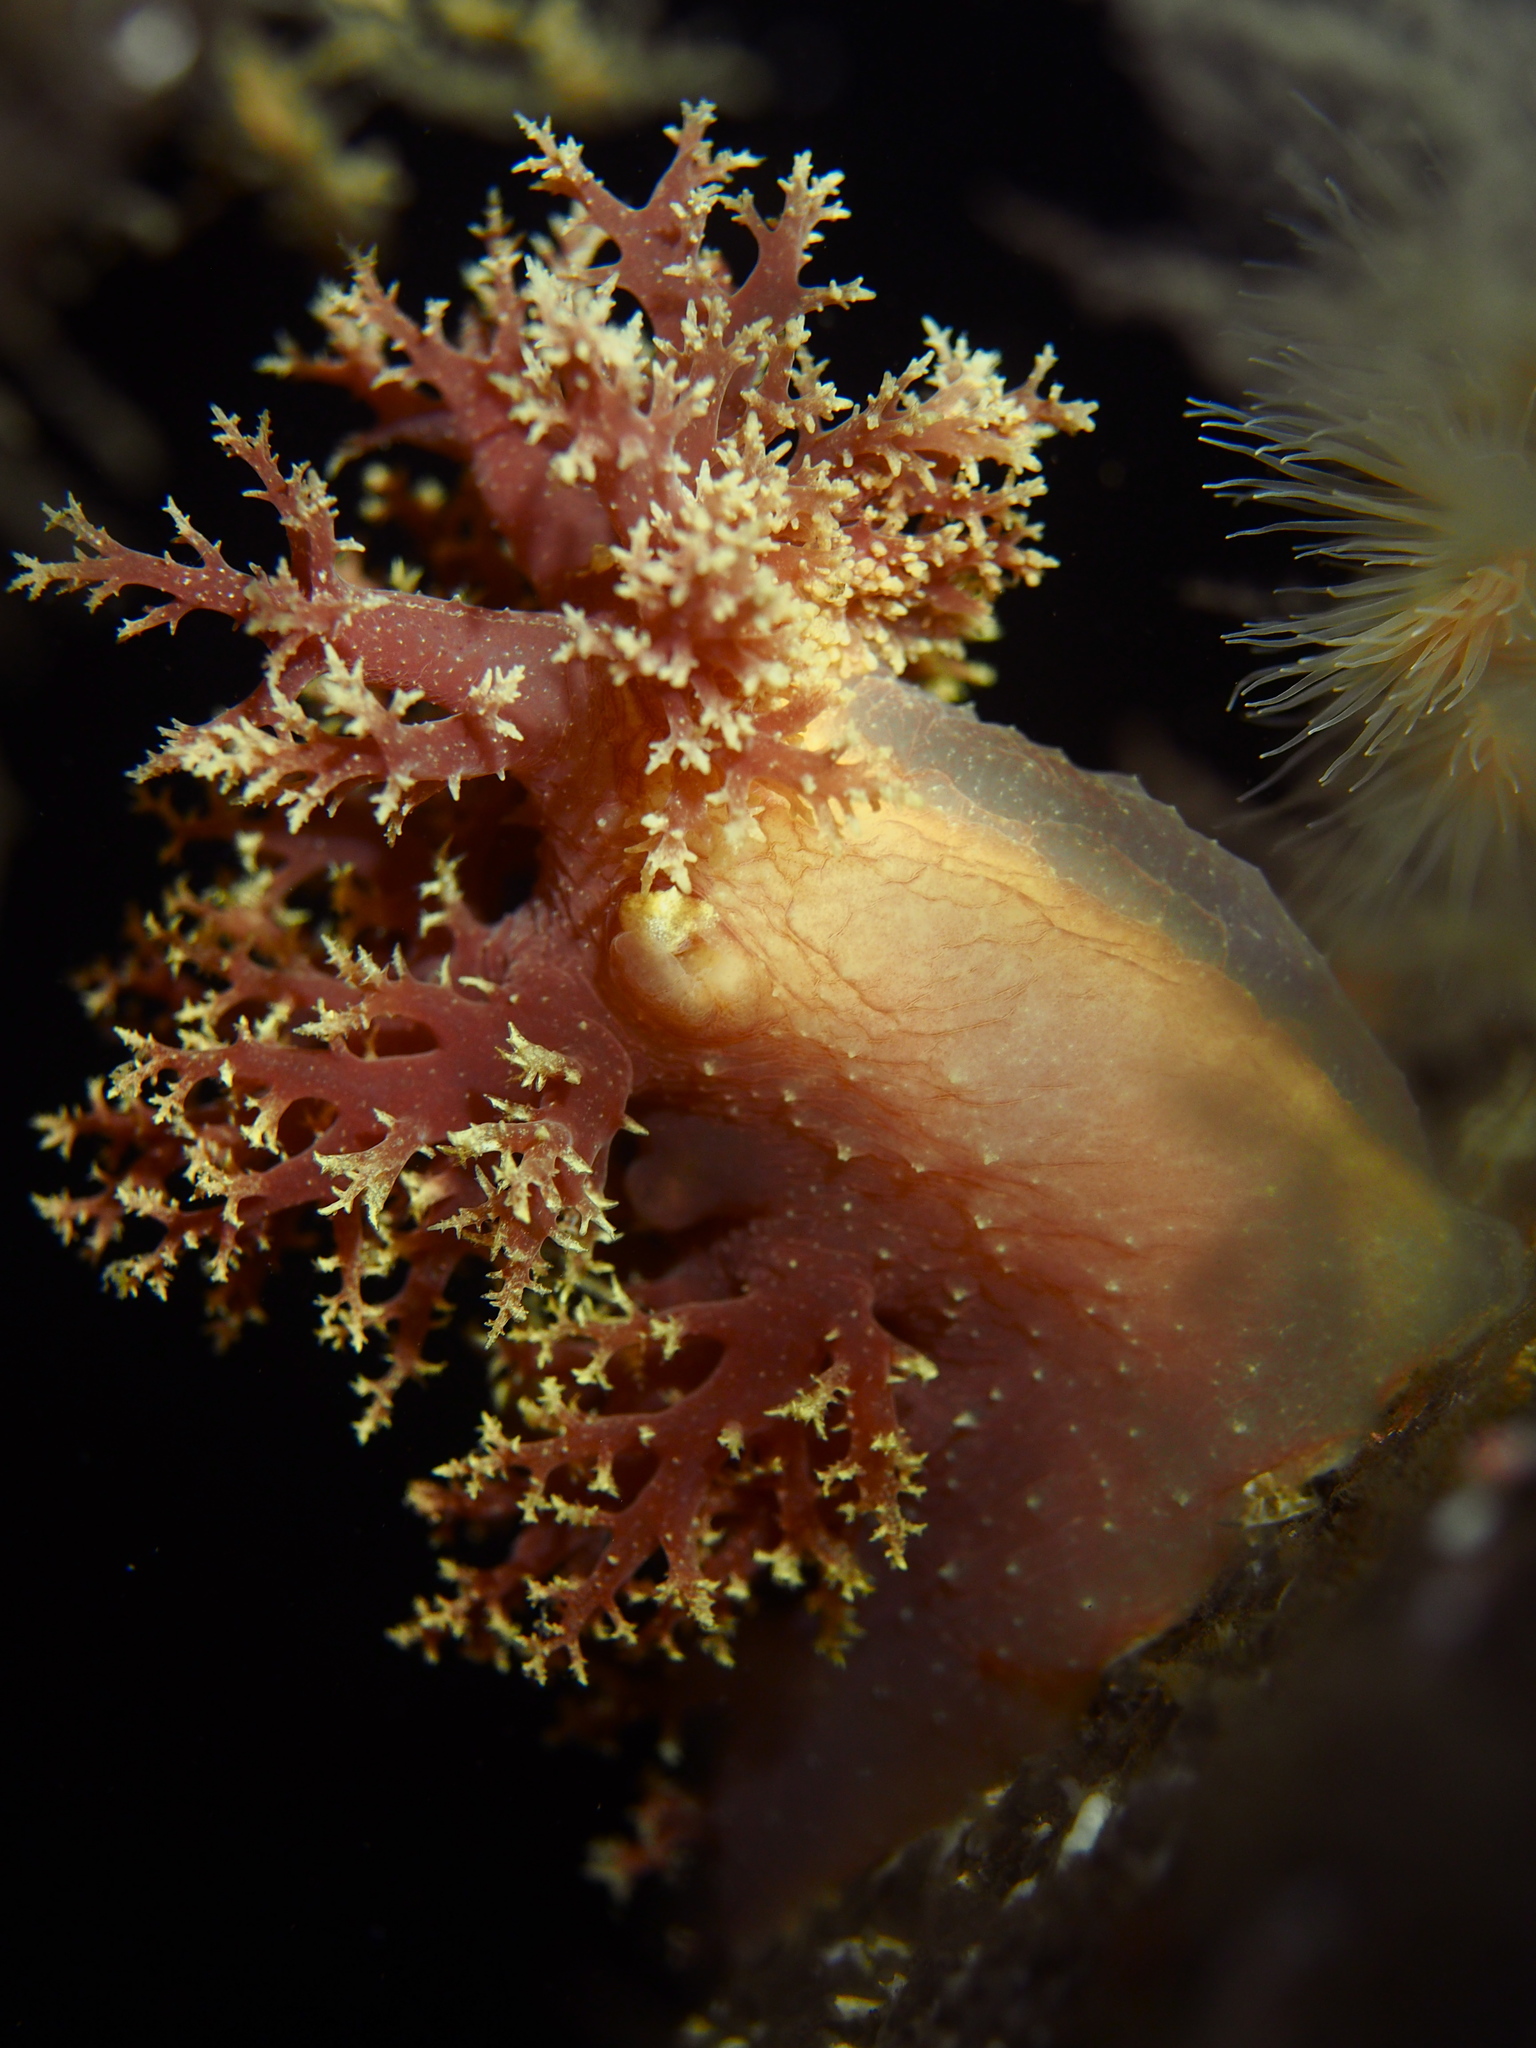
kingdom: Animalia
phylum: Mollusca
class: Gastropoda
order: Nudibranchia
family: Dendronotidae
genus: Dendronotus
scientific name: Dendronotus lacteus
